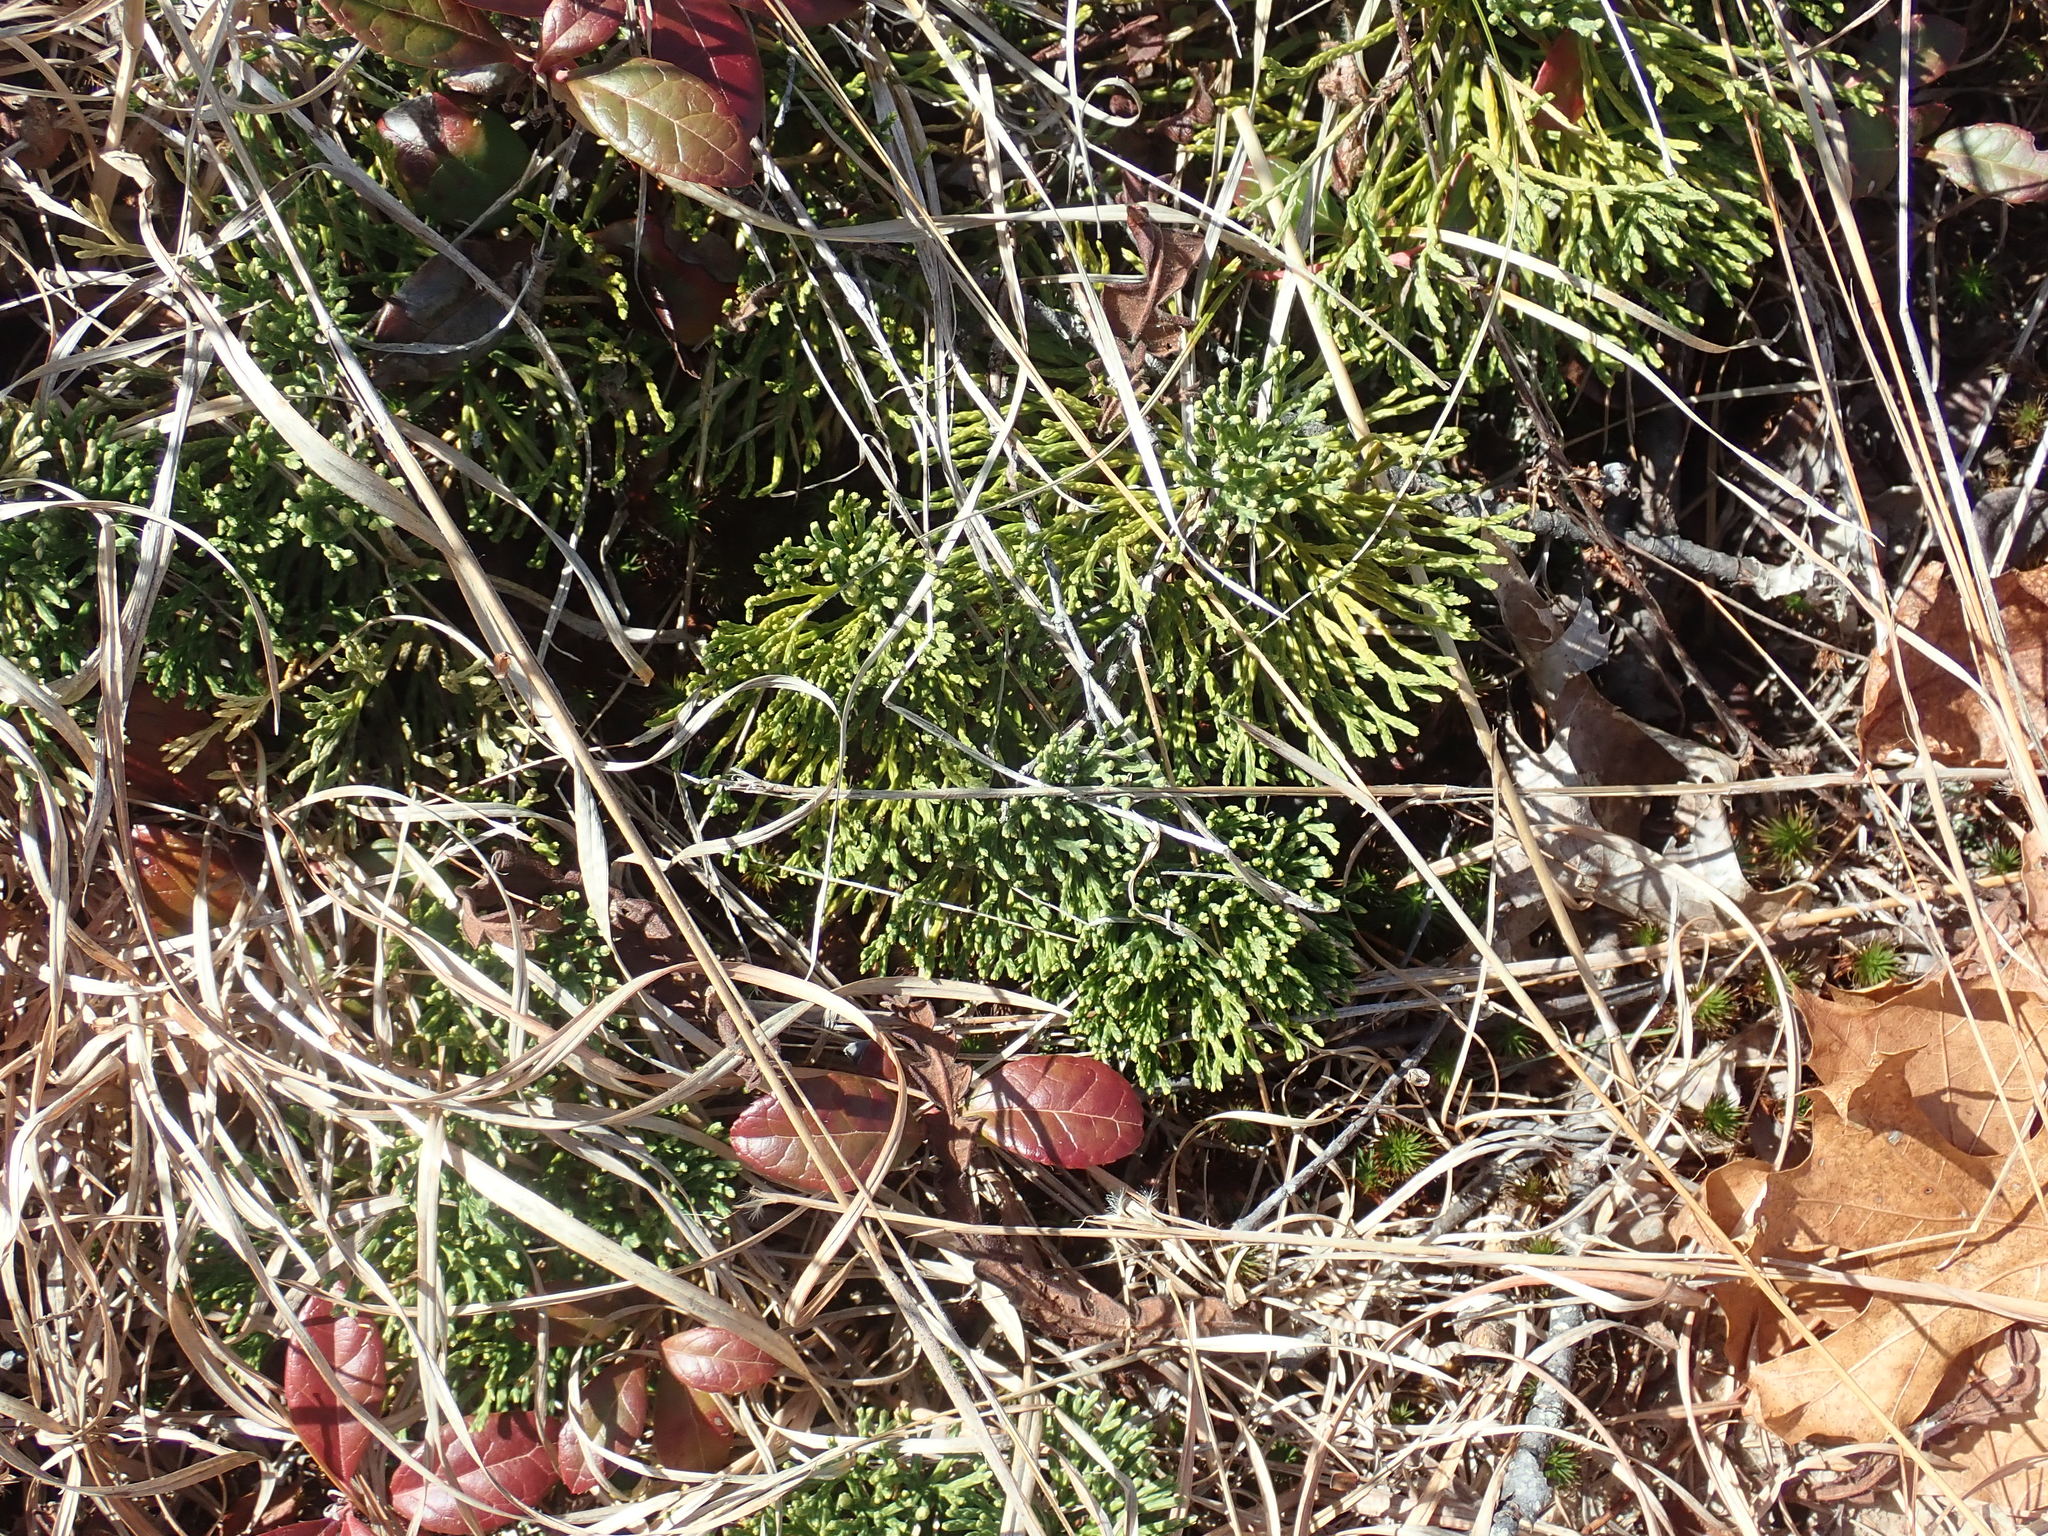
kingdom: Plantae
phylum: Tracheophyta
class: Lycopodiopsida
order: Lycopodiales
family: Lycopodiaceae
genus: Diphasiastrum
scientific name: Diphasiastrum tristachyum
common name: Blue ground-cedar
